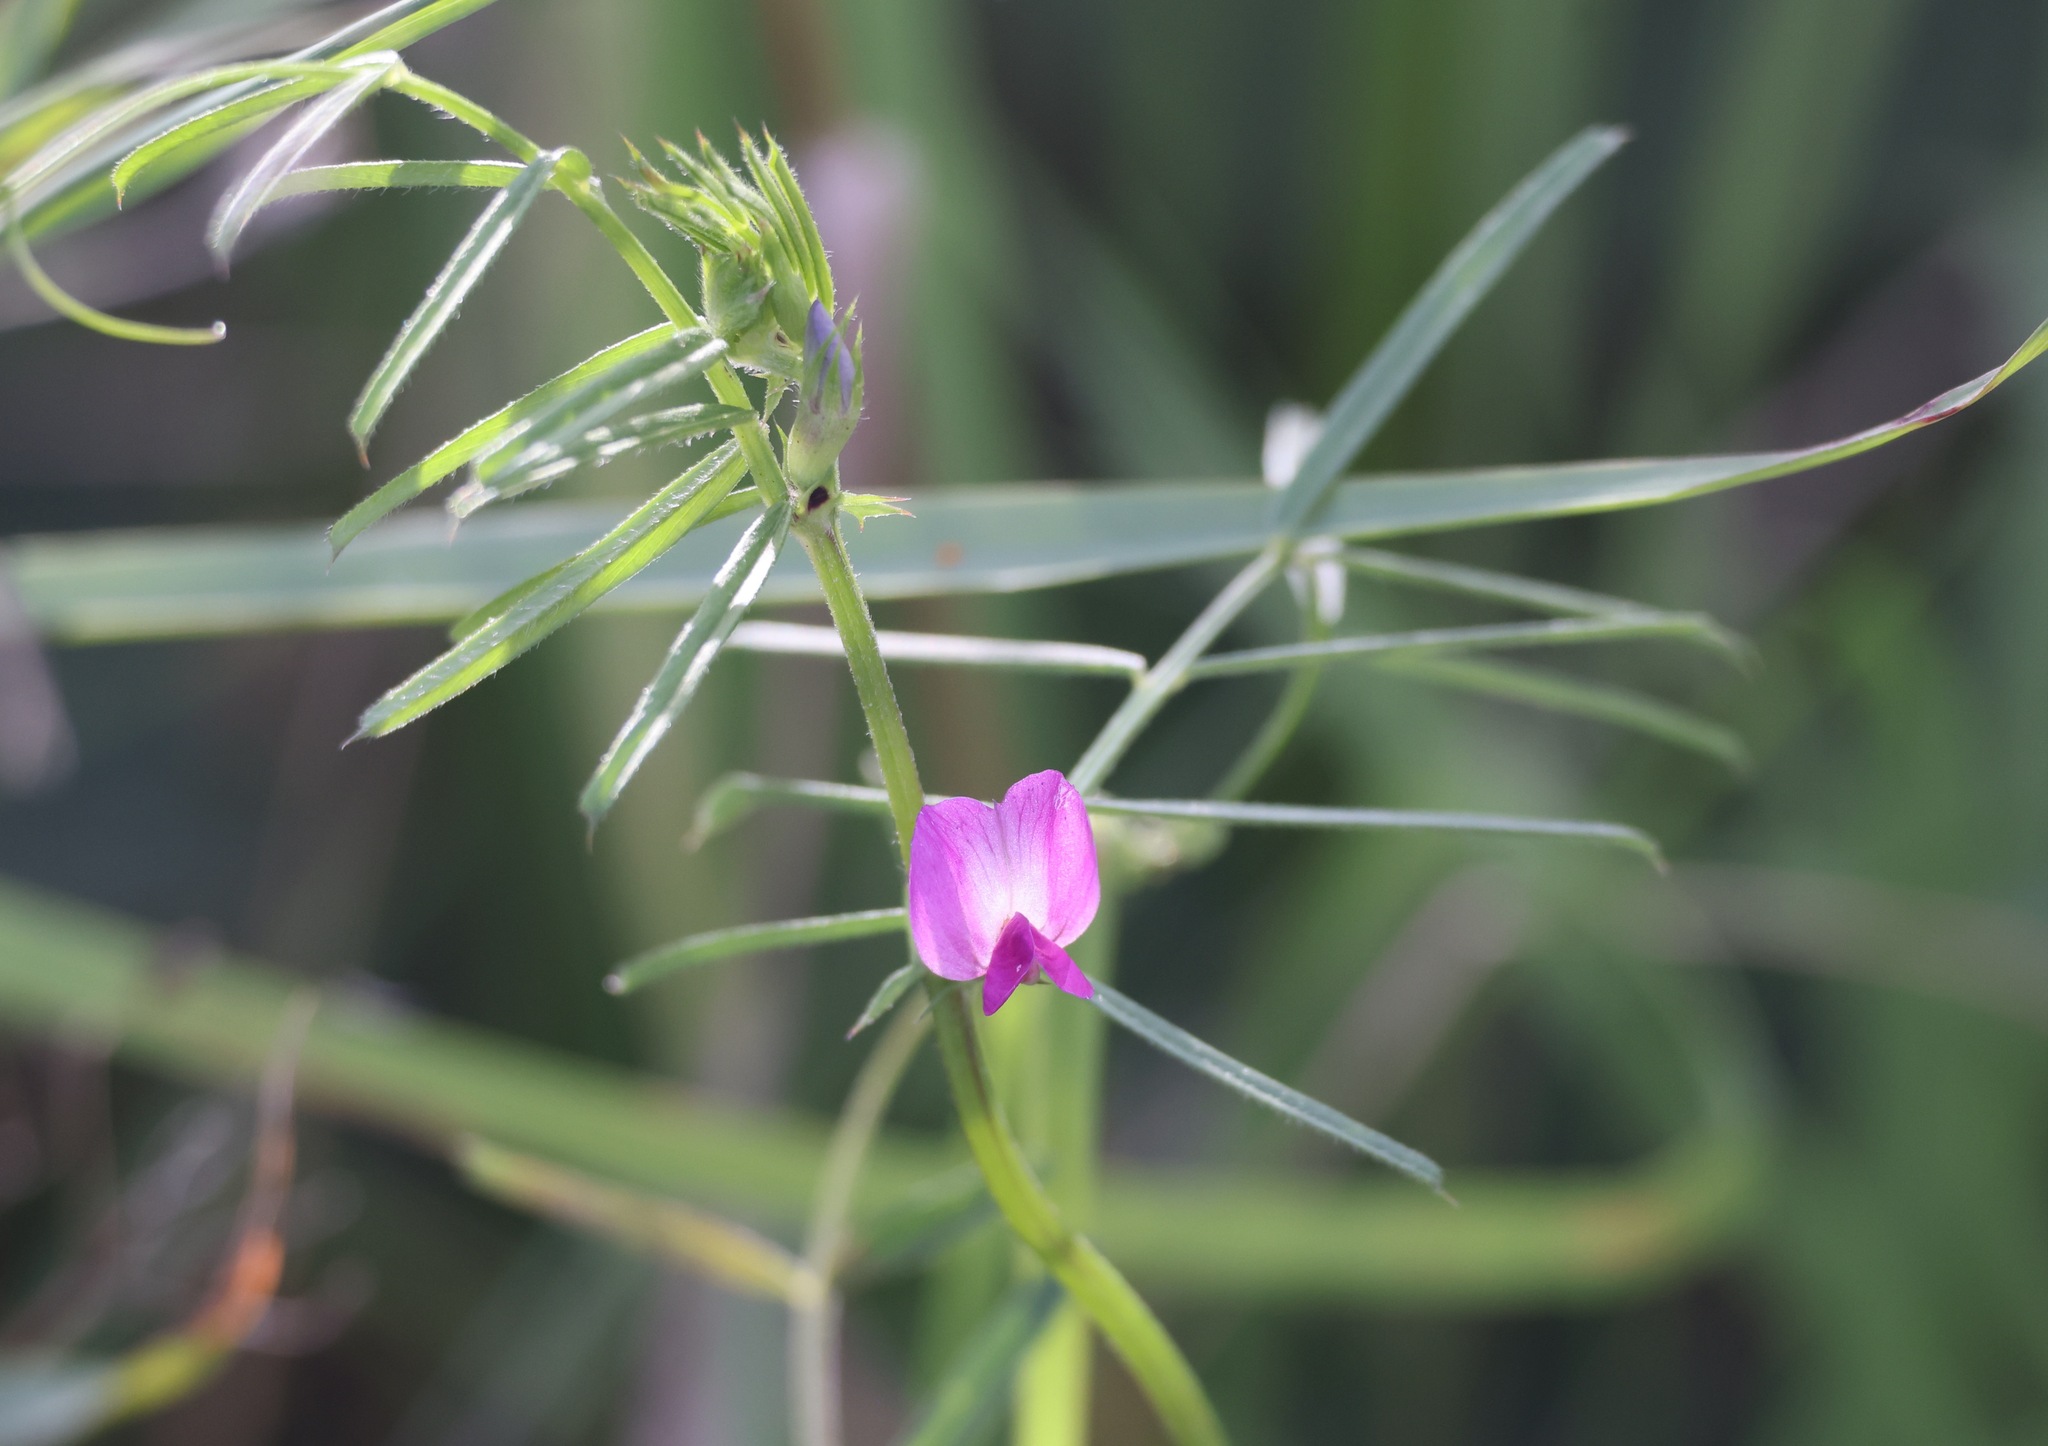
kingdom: Plantae
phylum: Tracheophyta
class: Magnoliopsida
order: Fabales
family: Fabaceae
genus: Vicia
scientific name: Vicia sativa
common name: Garden vetch
